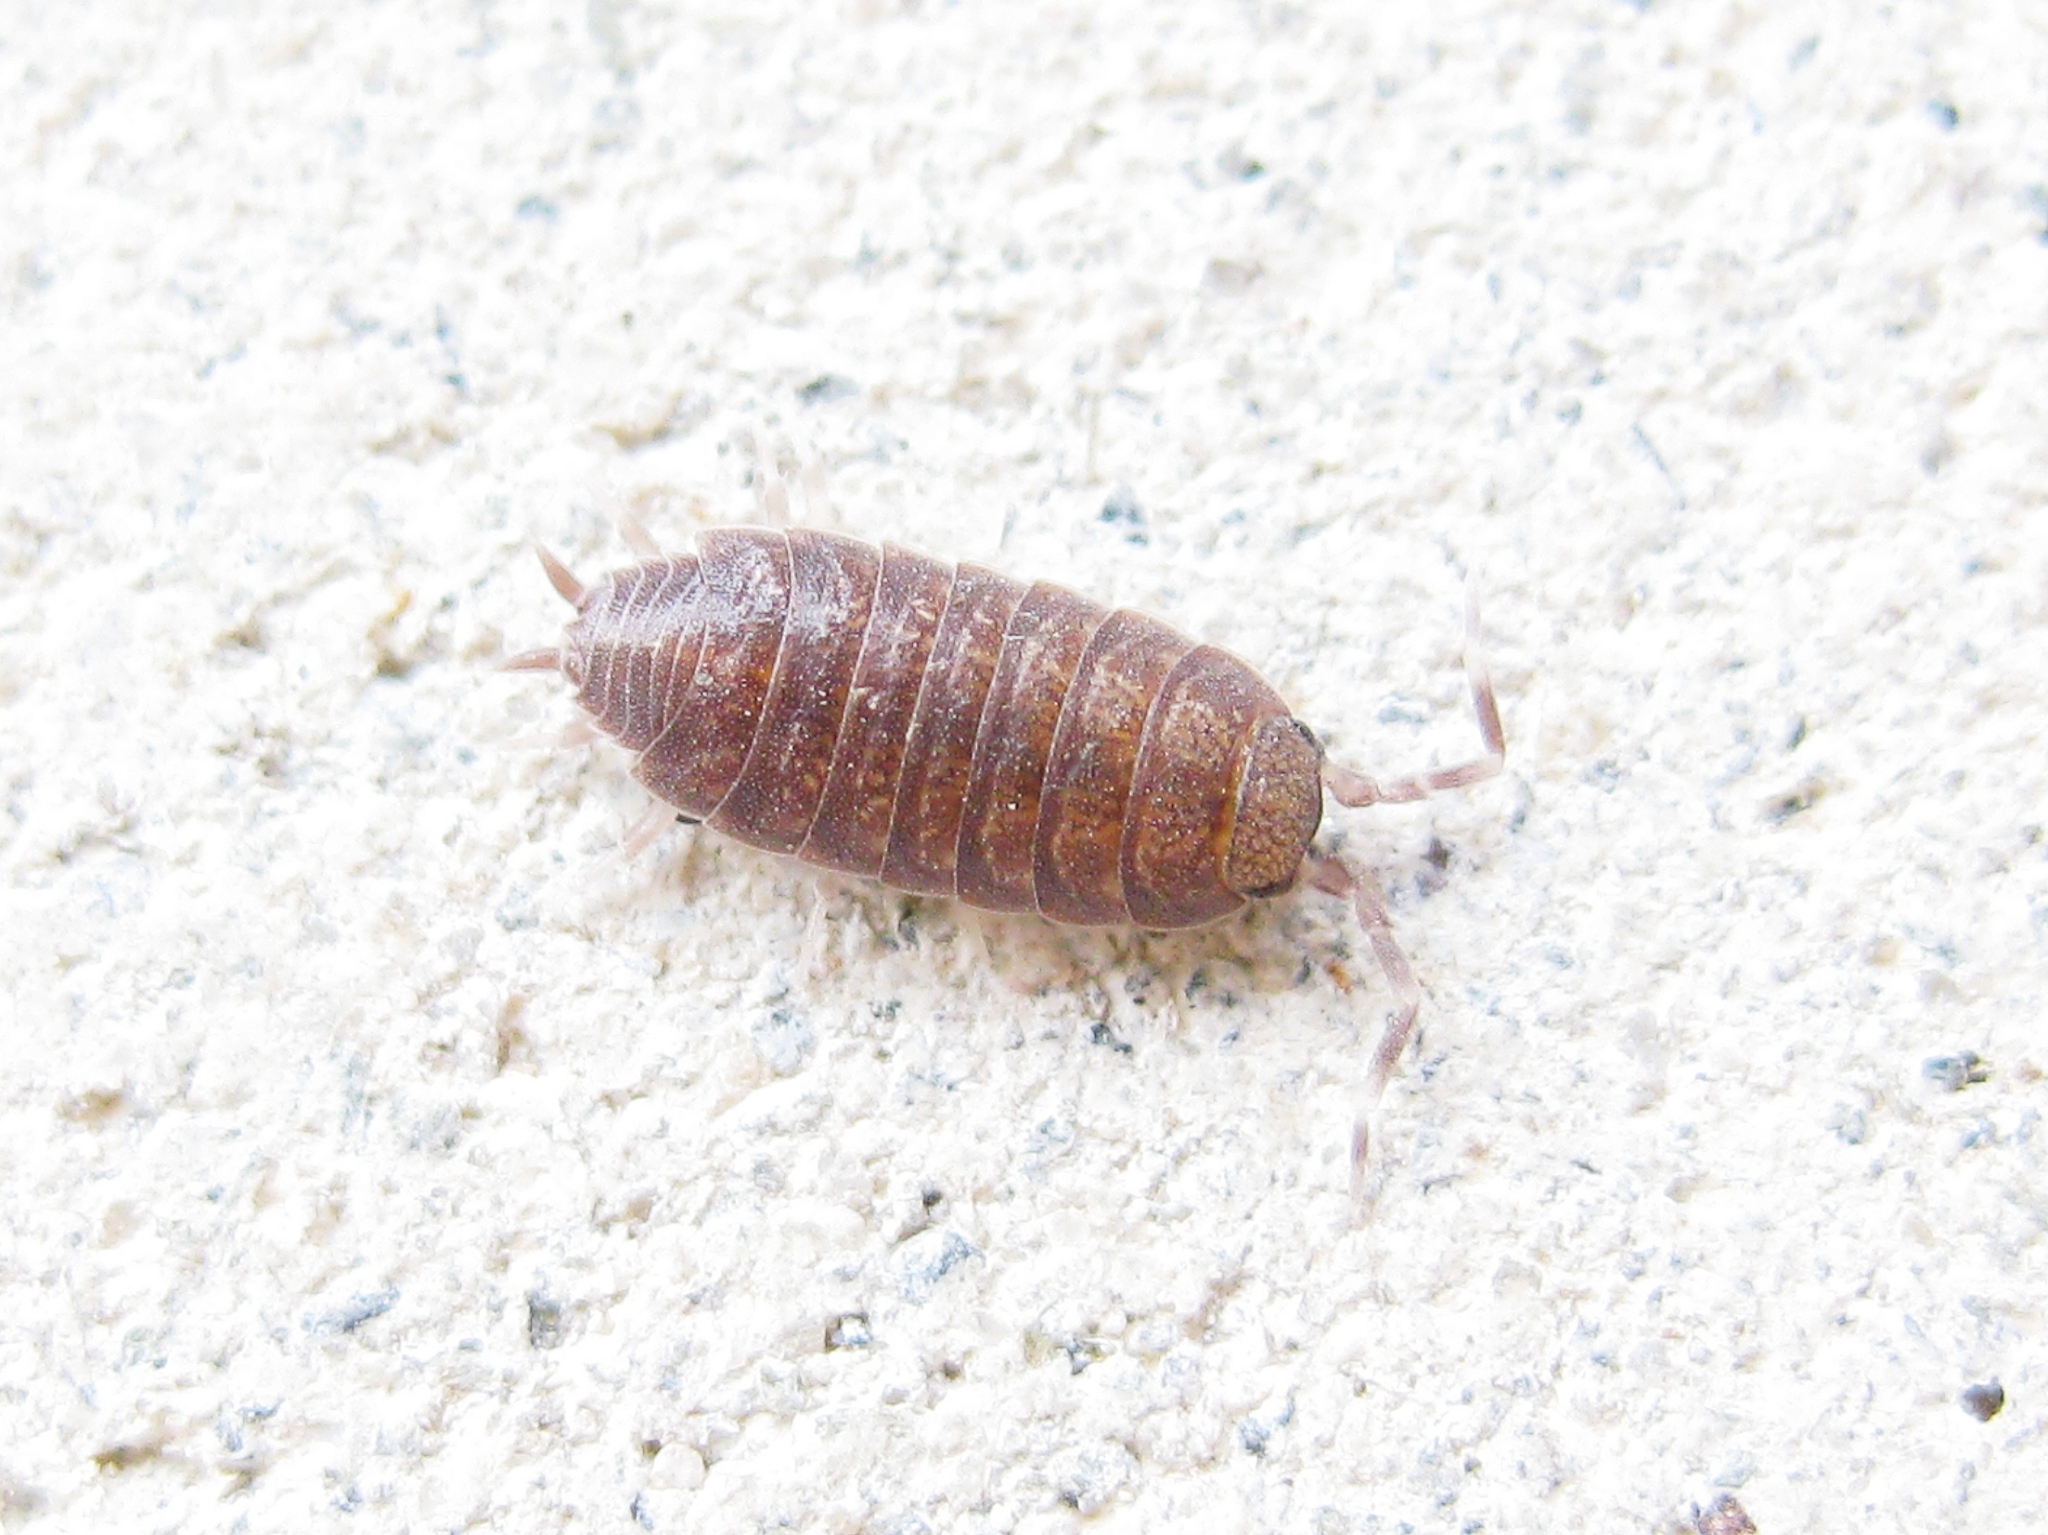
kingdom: Animalia
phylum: Arthropoda
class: Malacostraca
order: Isopoda
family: Porcellionidae
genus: Porcellionides
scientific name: Porcellionides
